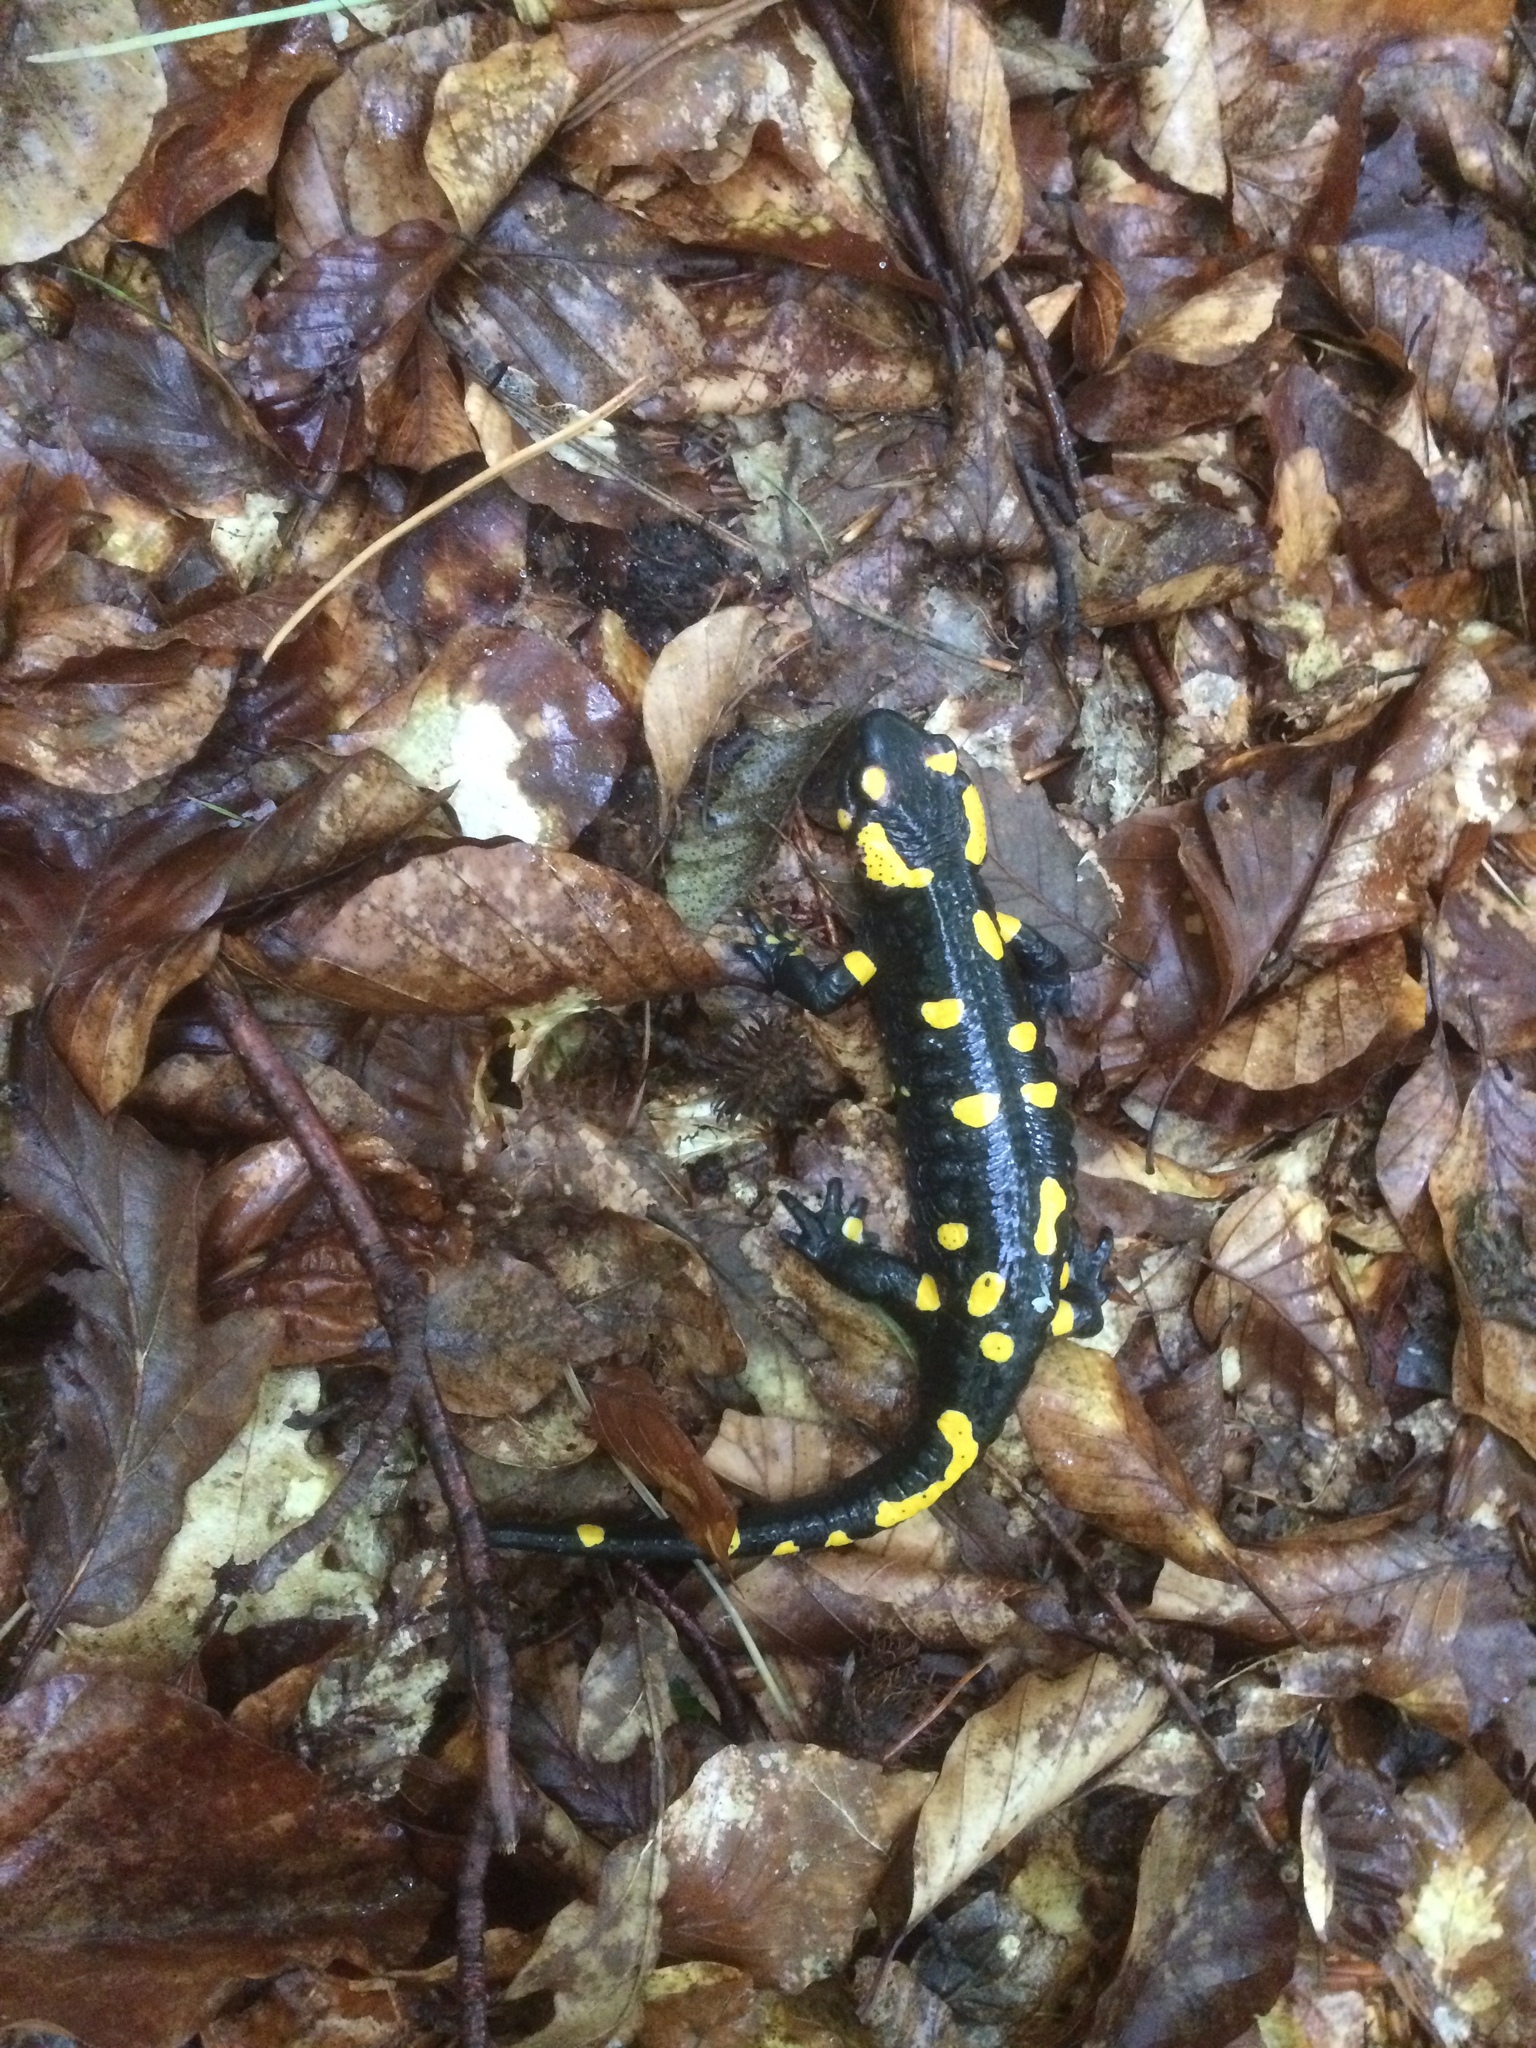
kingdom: Animalia
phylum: Chordata
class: Amphibia
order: Caudata
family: Salamandridae
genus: Salamandra
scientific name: Salamandra salamandra
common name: Fire salamander
